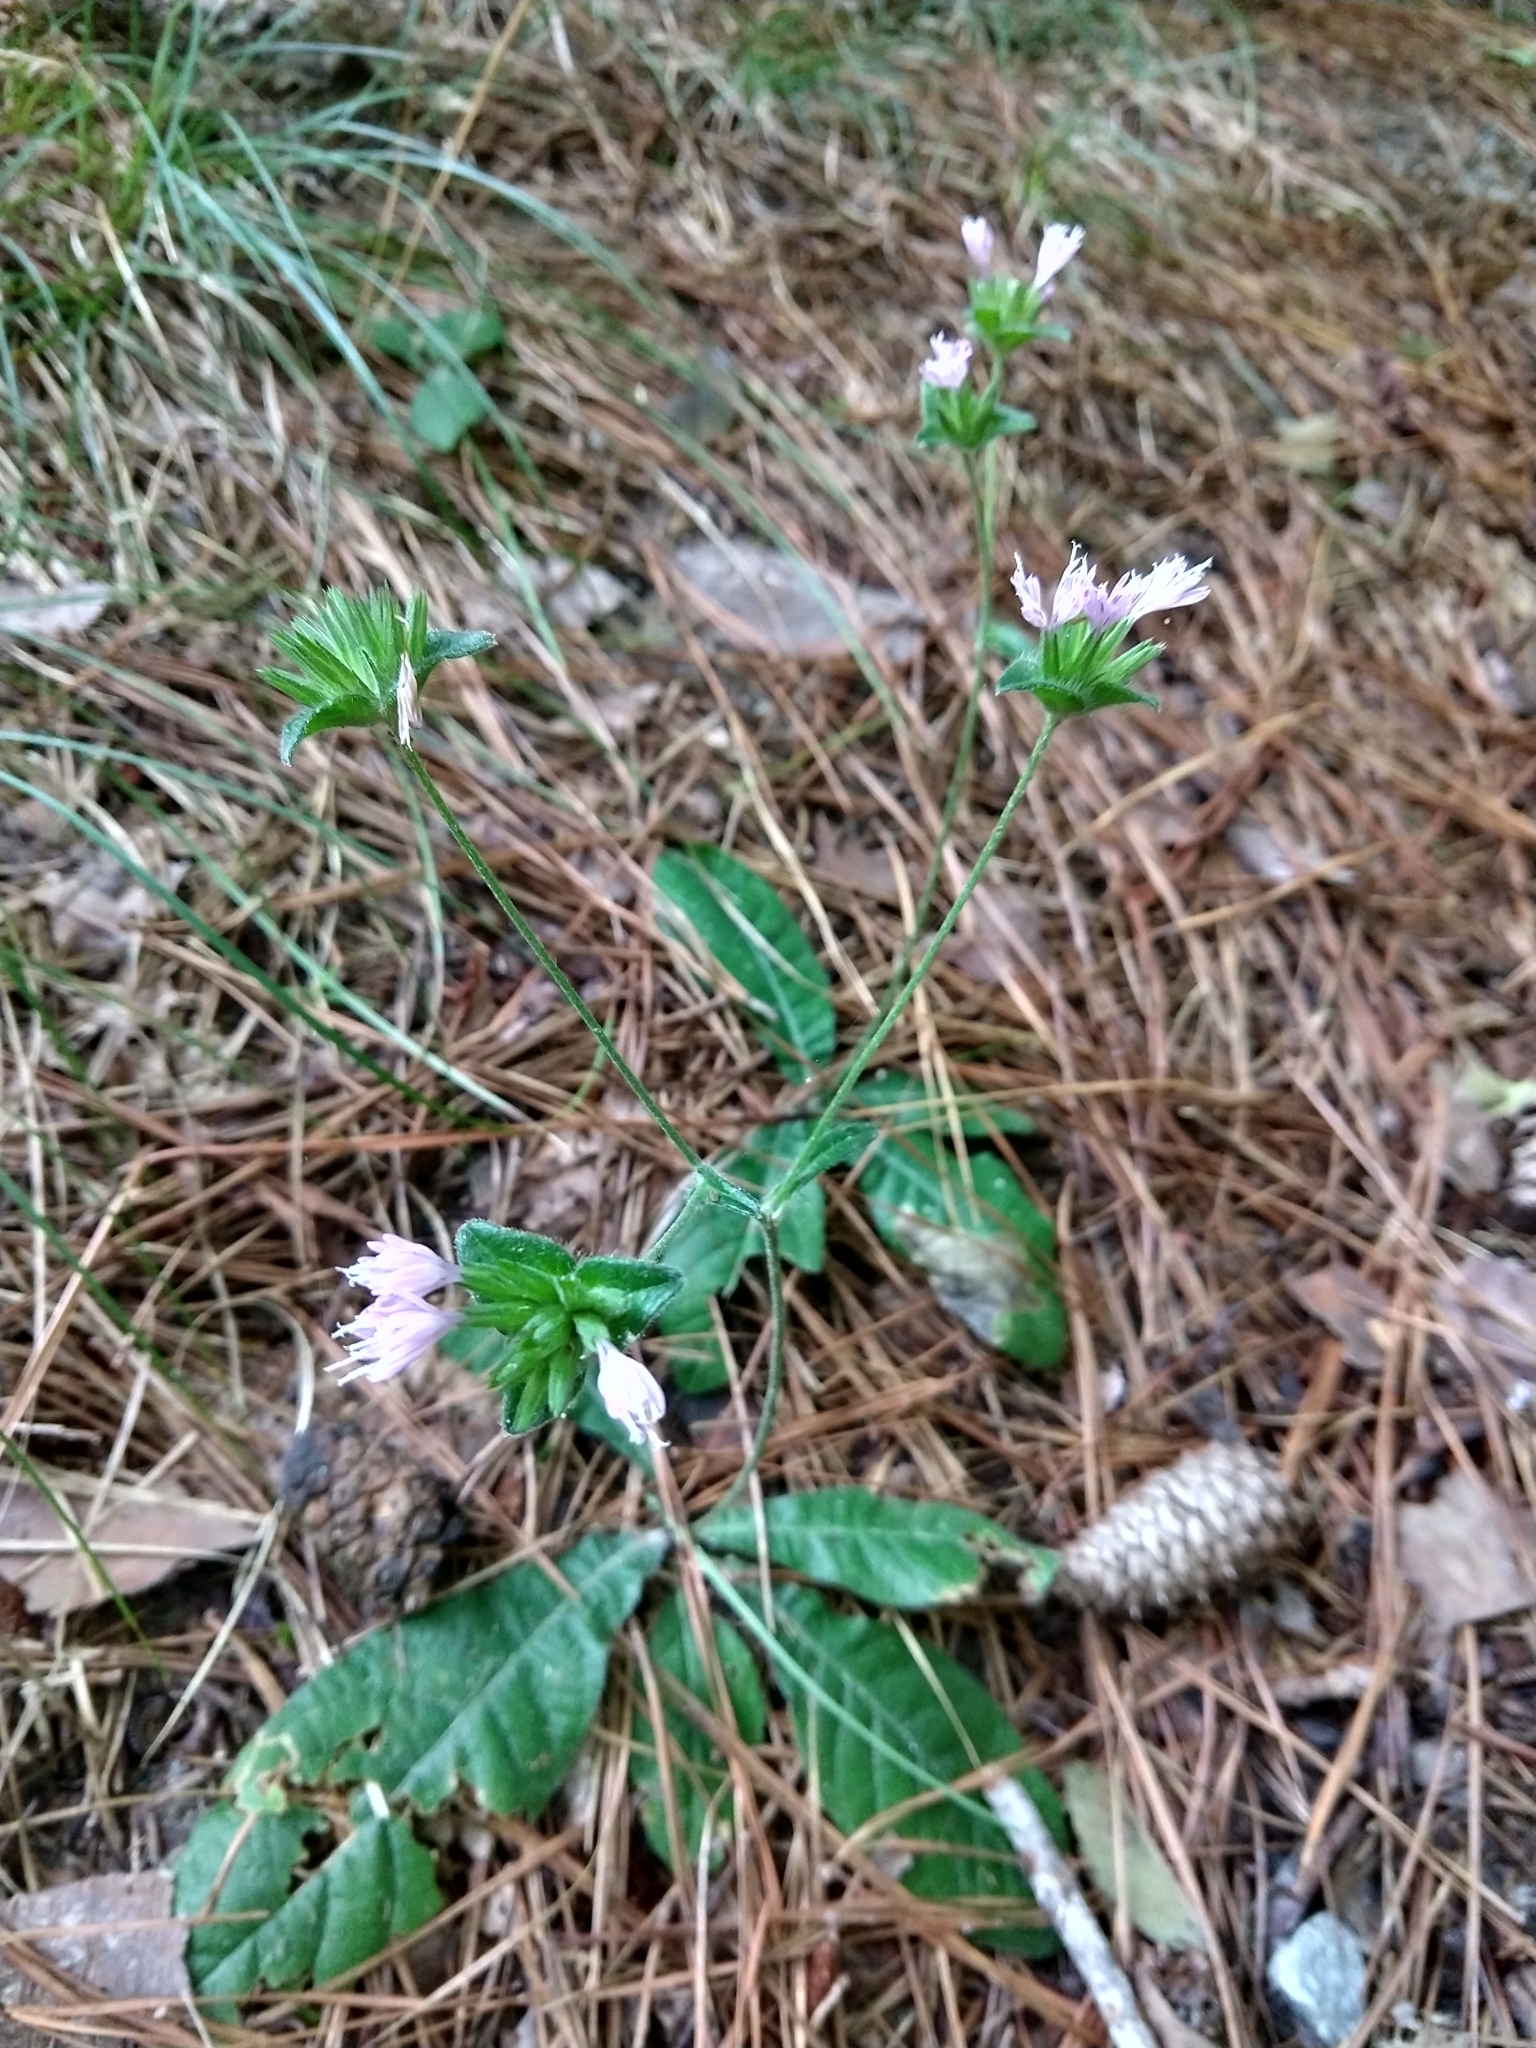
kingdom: Plantae
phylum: Tracheophyta
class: Magnoliopsida
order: Asterales
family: Asteraceae
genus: Elephantopus
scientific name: Elephantopus tomentosus
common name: Tobacco-weed
